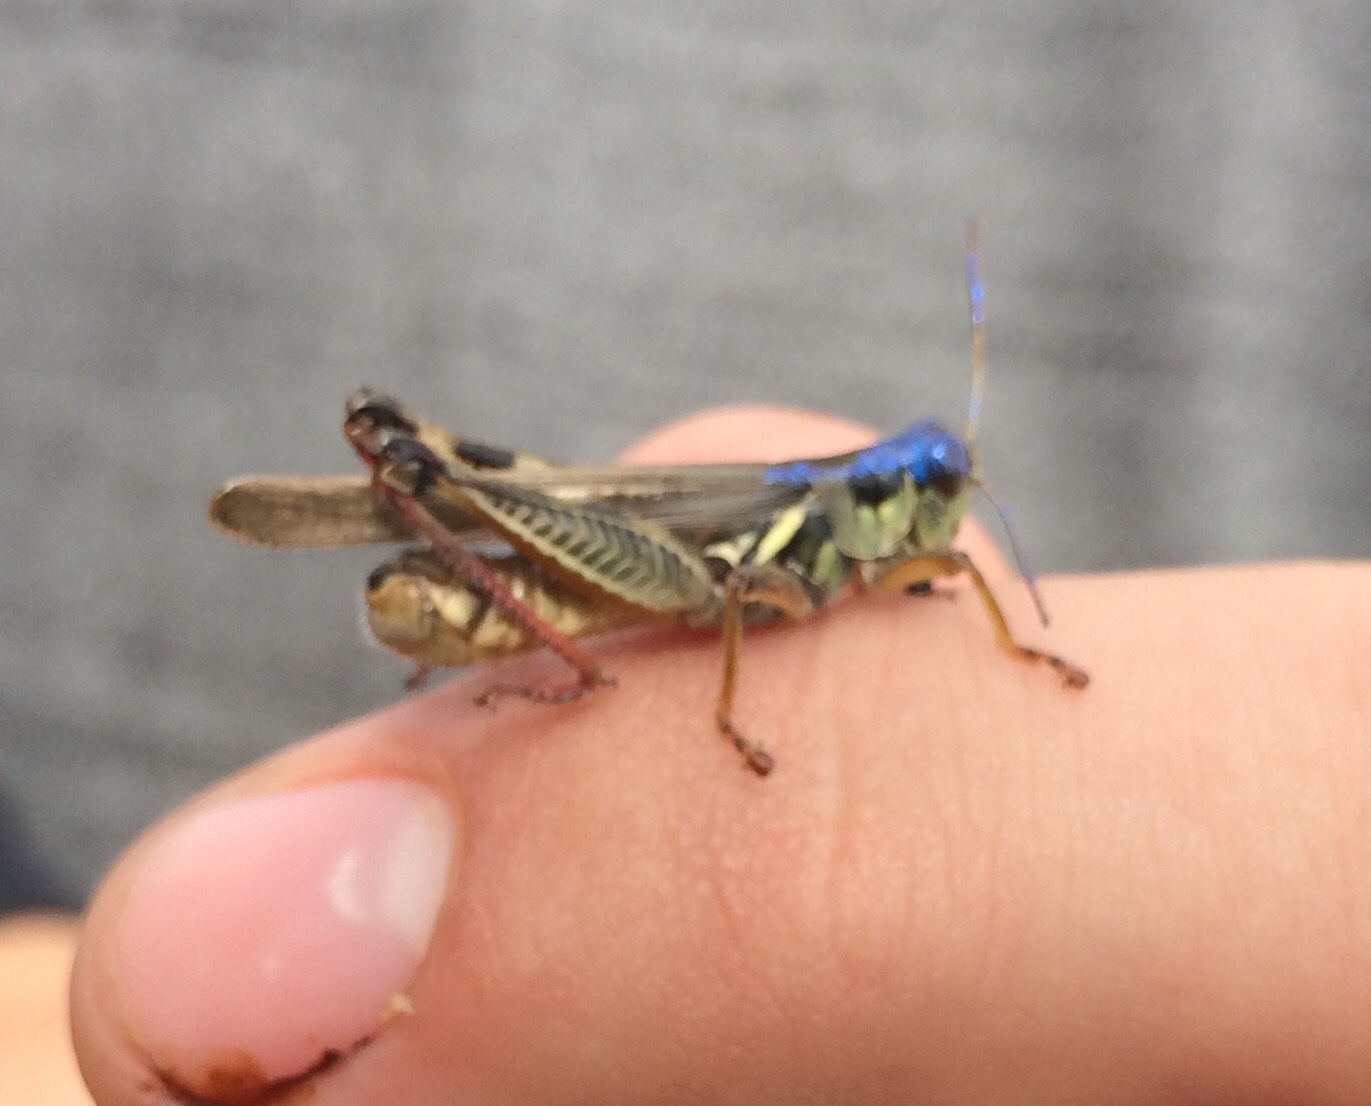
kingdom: Animalia
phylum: Arthropoda
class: Insecta
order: Orthoptera
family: Acrididae
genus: Melanoplus
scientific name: Melanoplus femurrubrum
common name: Red-legged grasshopper
